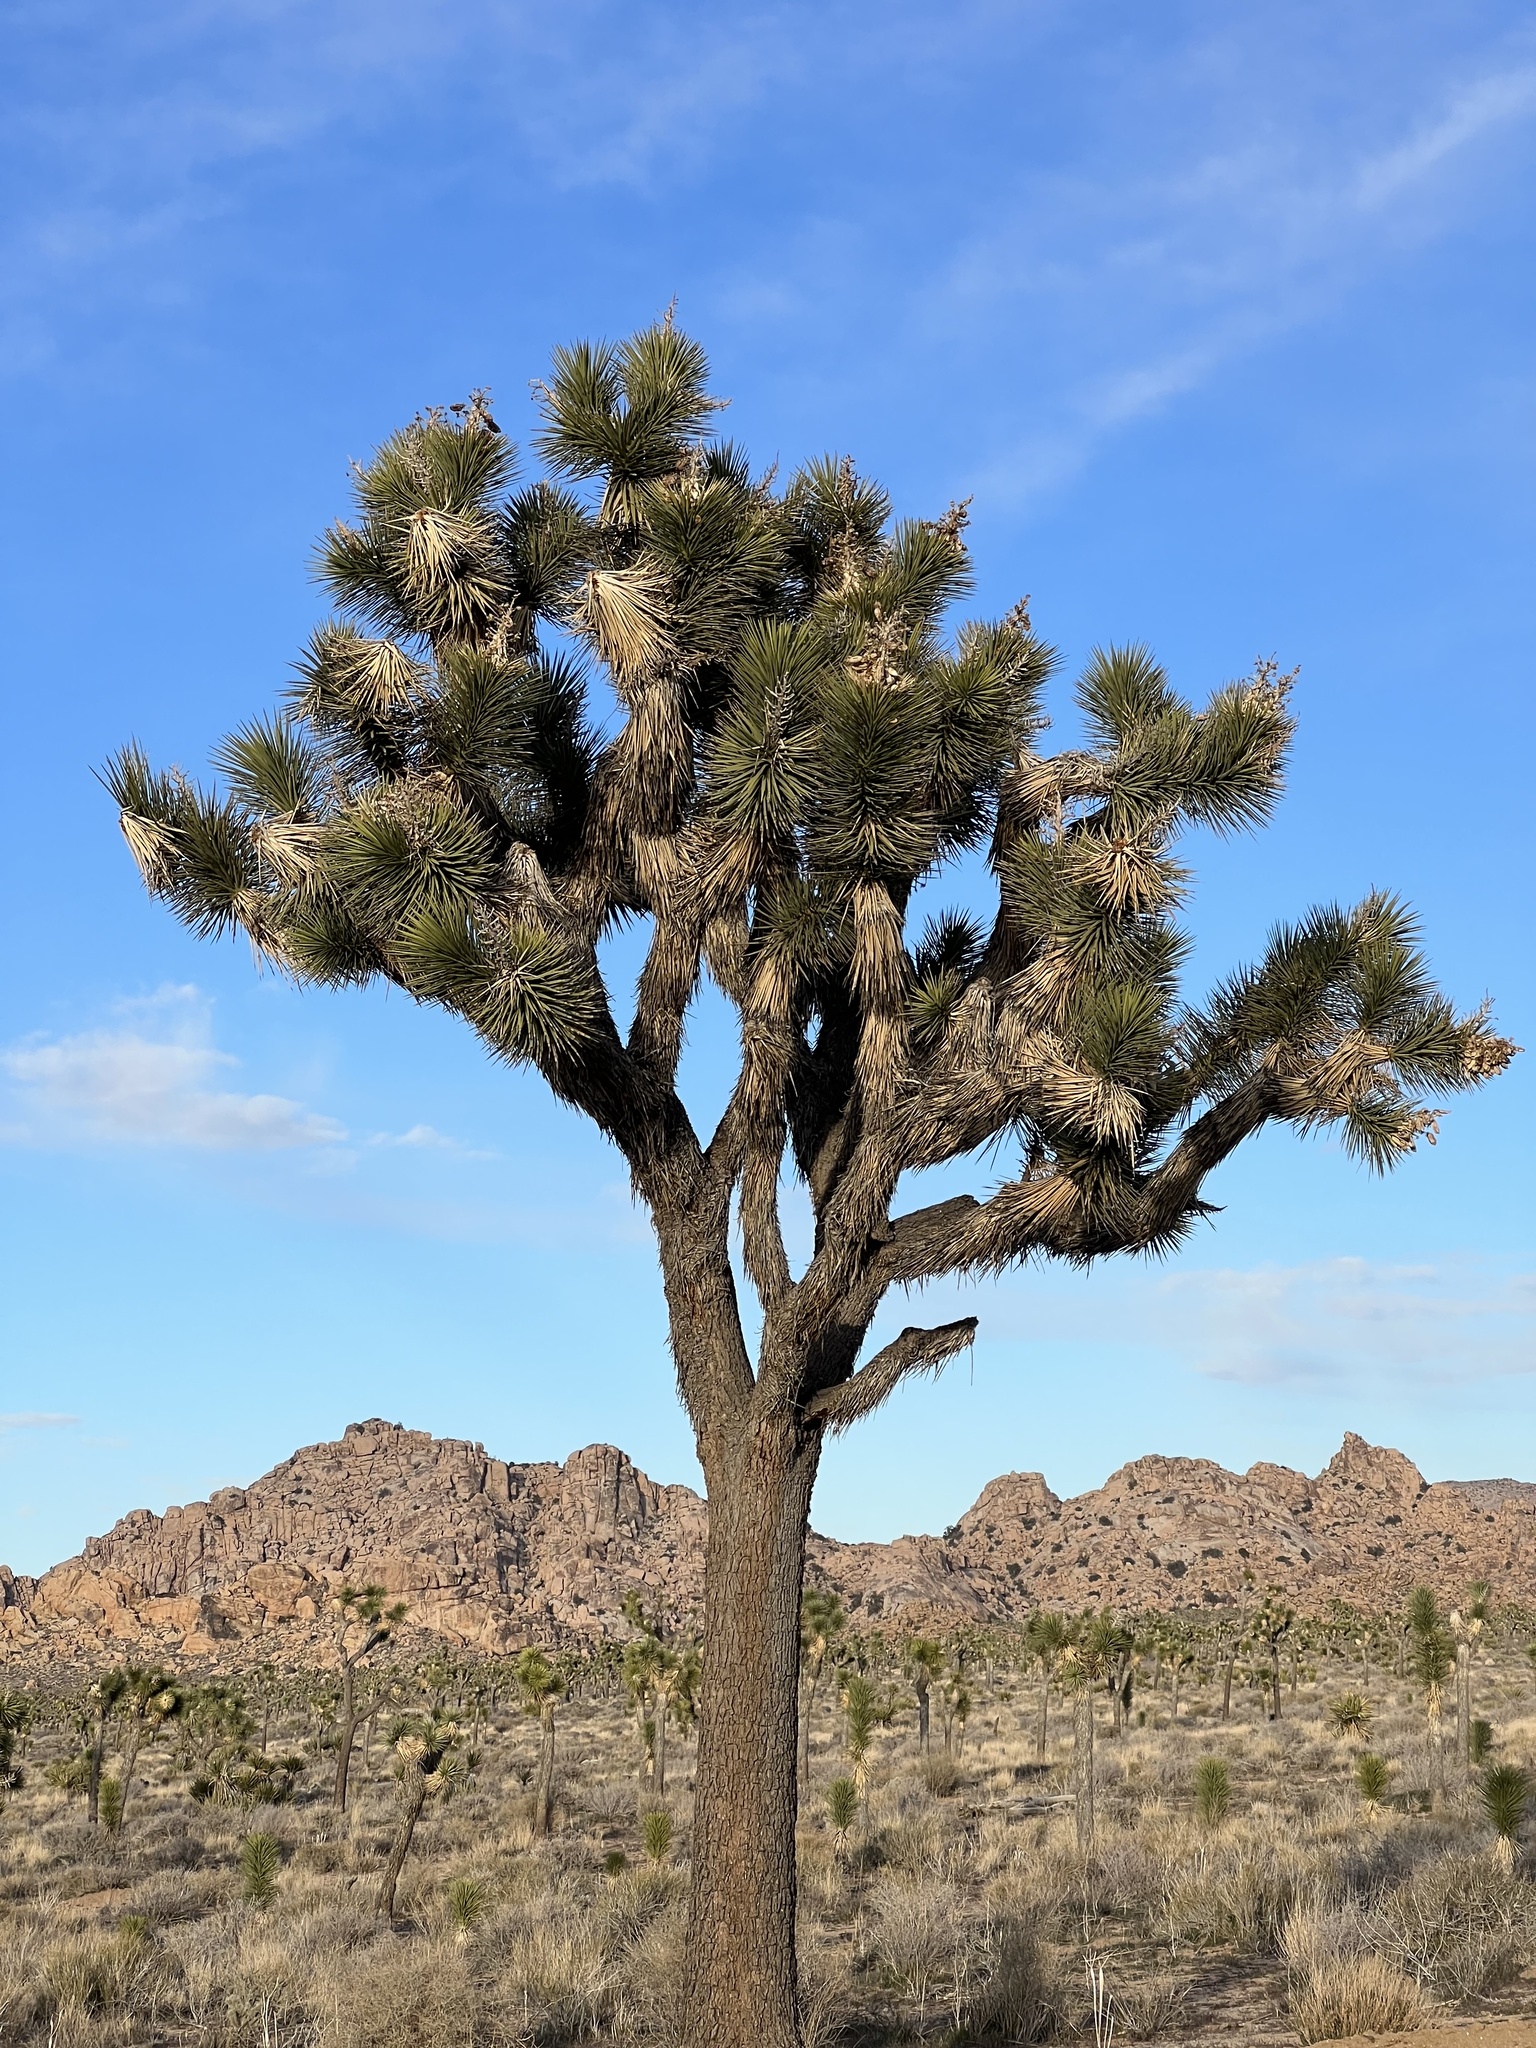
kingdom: Plantae
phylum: Tracheophyta
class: Liliopsida
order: Asparagales
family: Asparagaceae
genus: Yucca
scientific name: Yucca brevifolia
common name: Joshua tree
